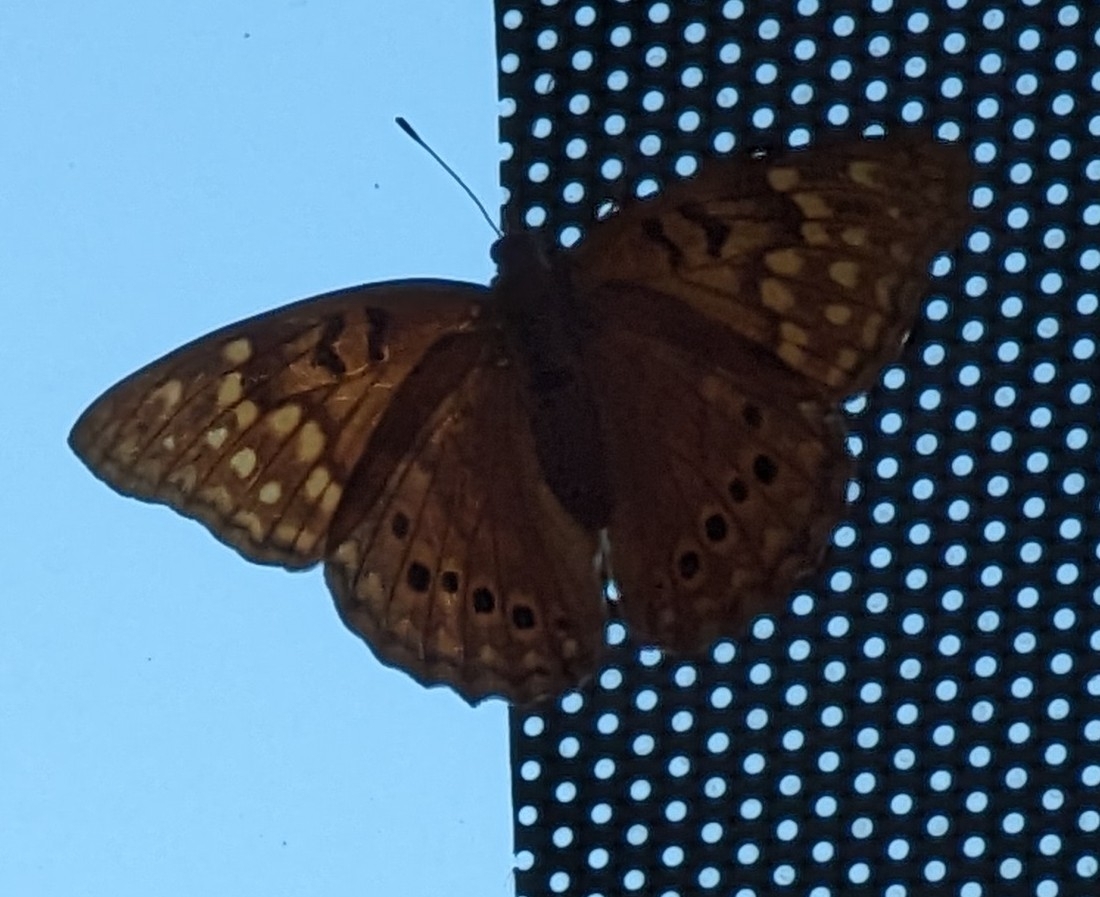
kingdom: Animalia
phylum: Arthropoda
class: Insecta
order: Lepidoptera
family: Nymphalidae
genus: Asterocampa
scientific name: Asterocampa clyton
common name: Tawny emperor
